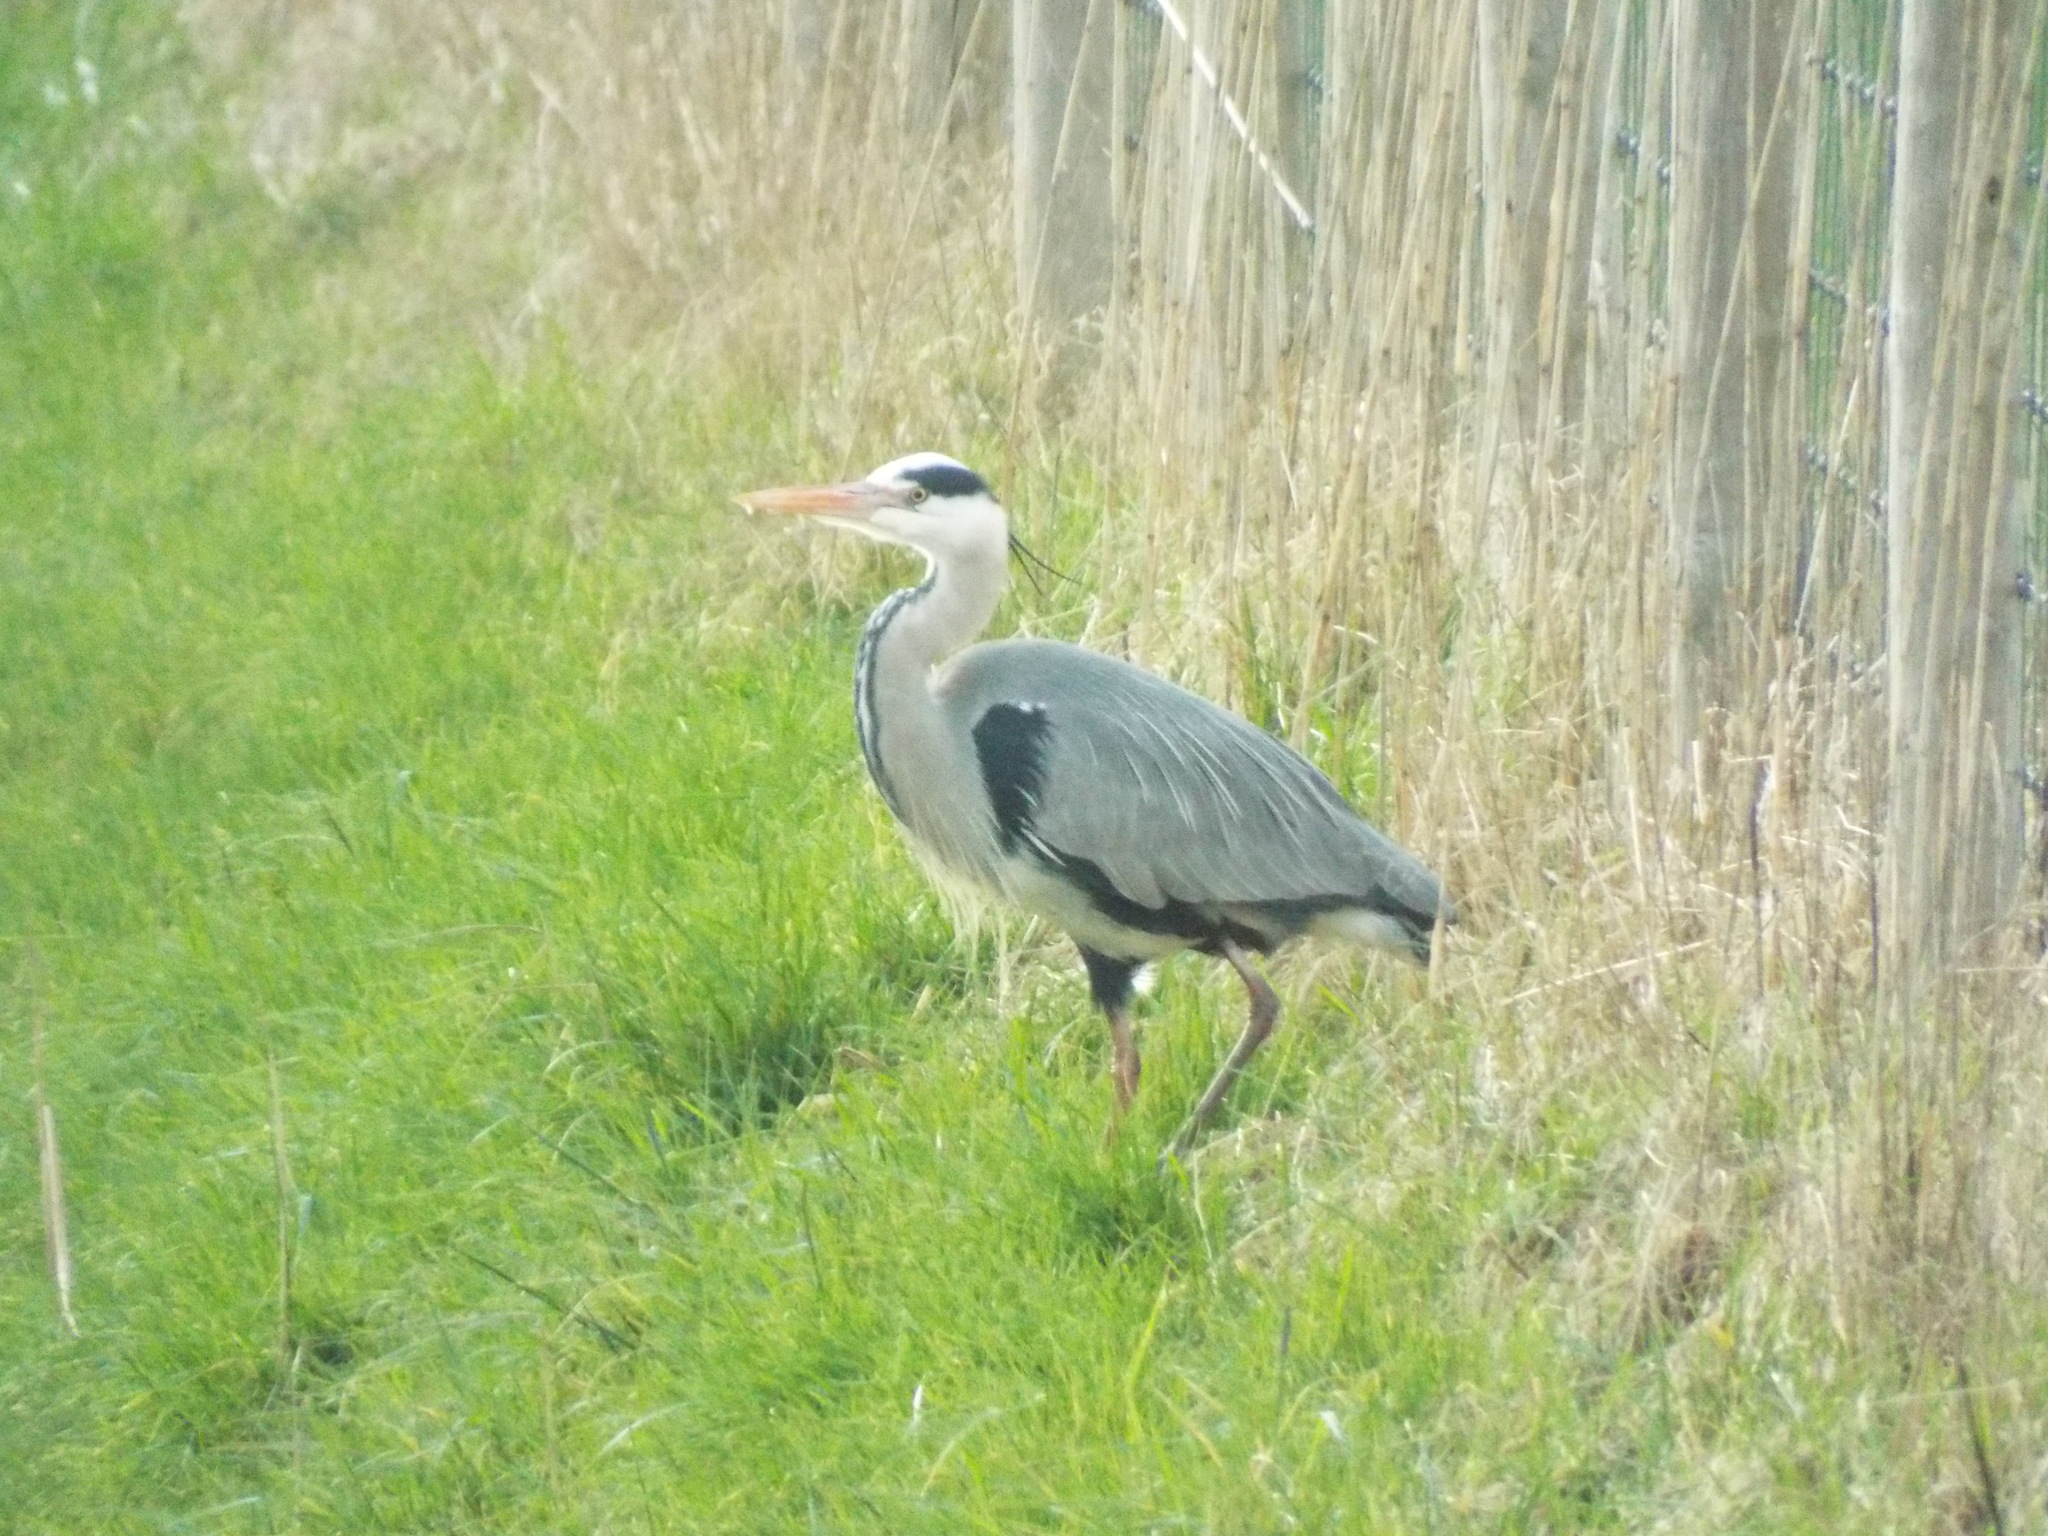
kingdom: Animalia
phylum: Chordata
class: Aves
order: Pelecaniformes
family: Ardeidae
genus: Ardea
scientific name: Ardea cinerea
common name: Grey heron
